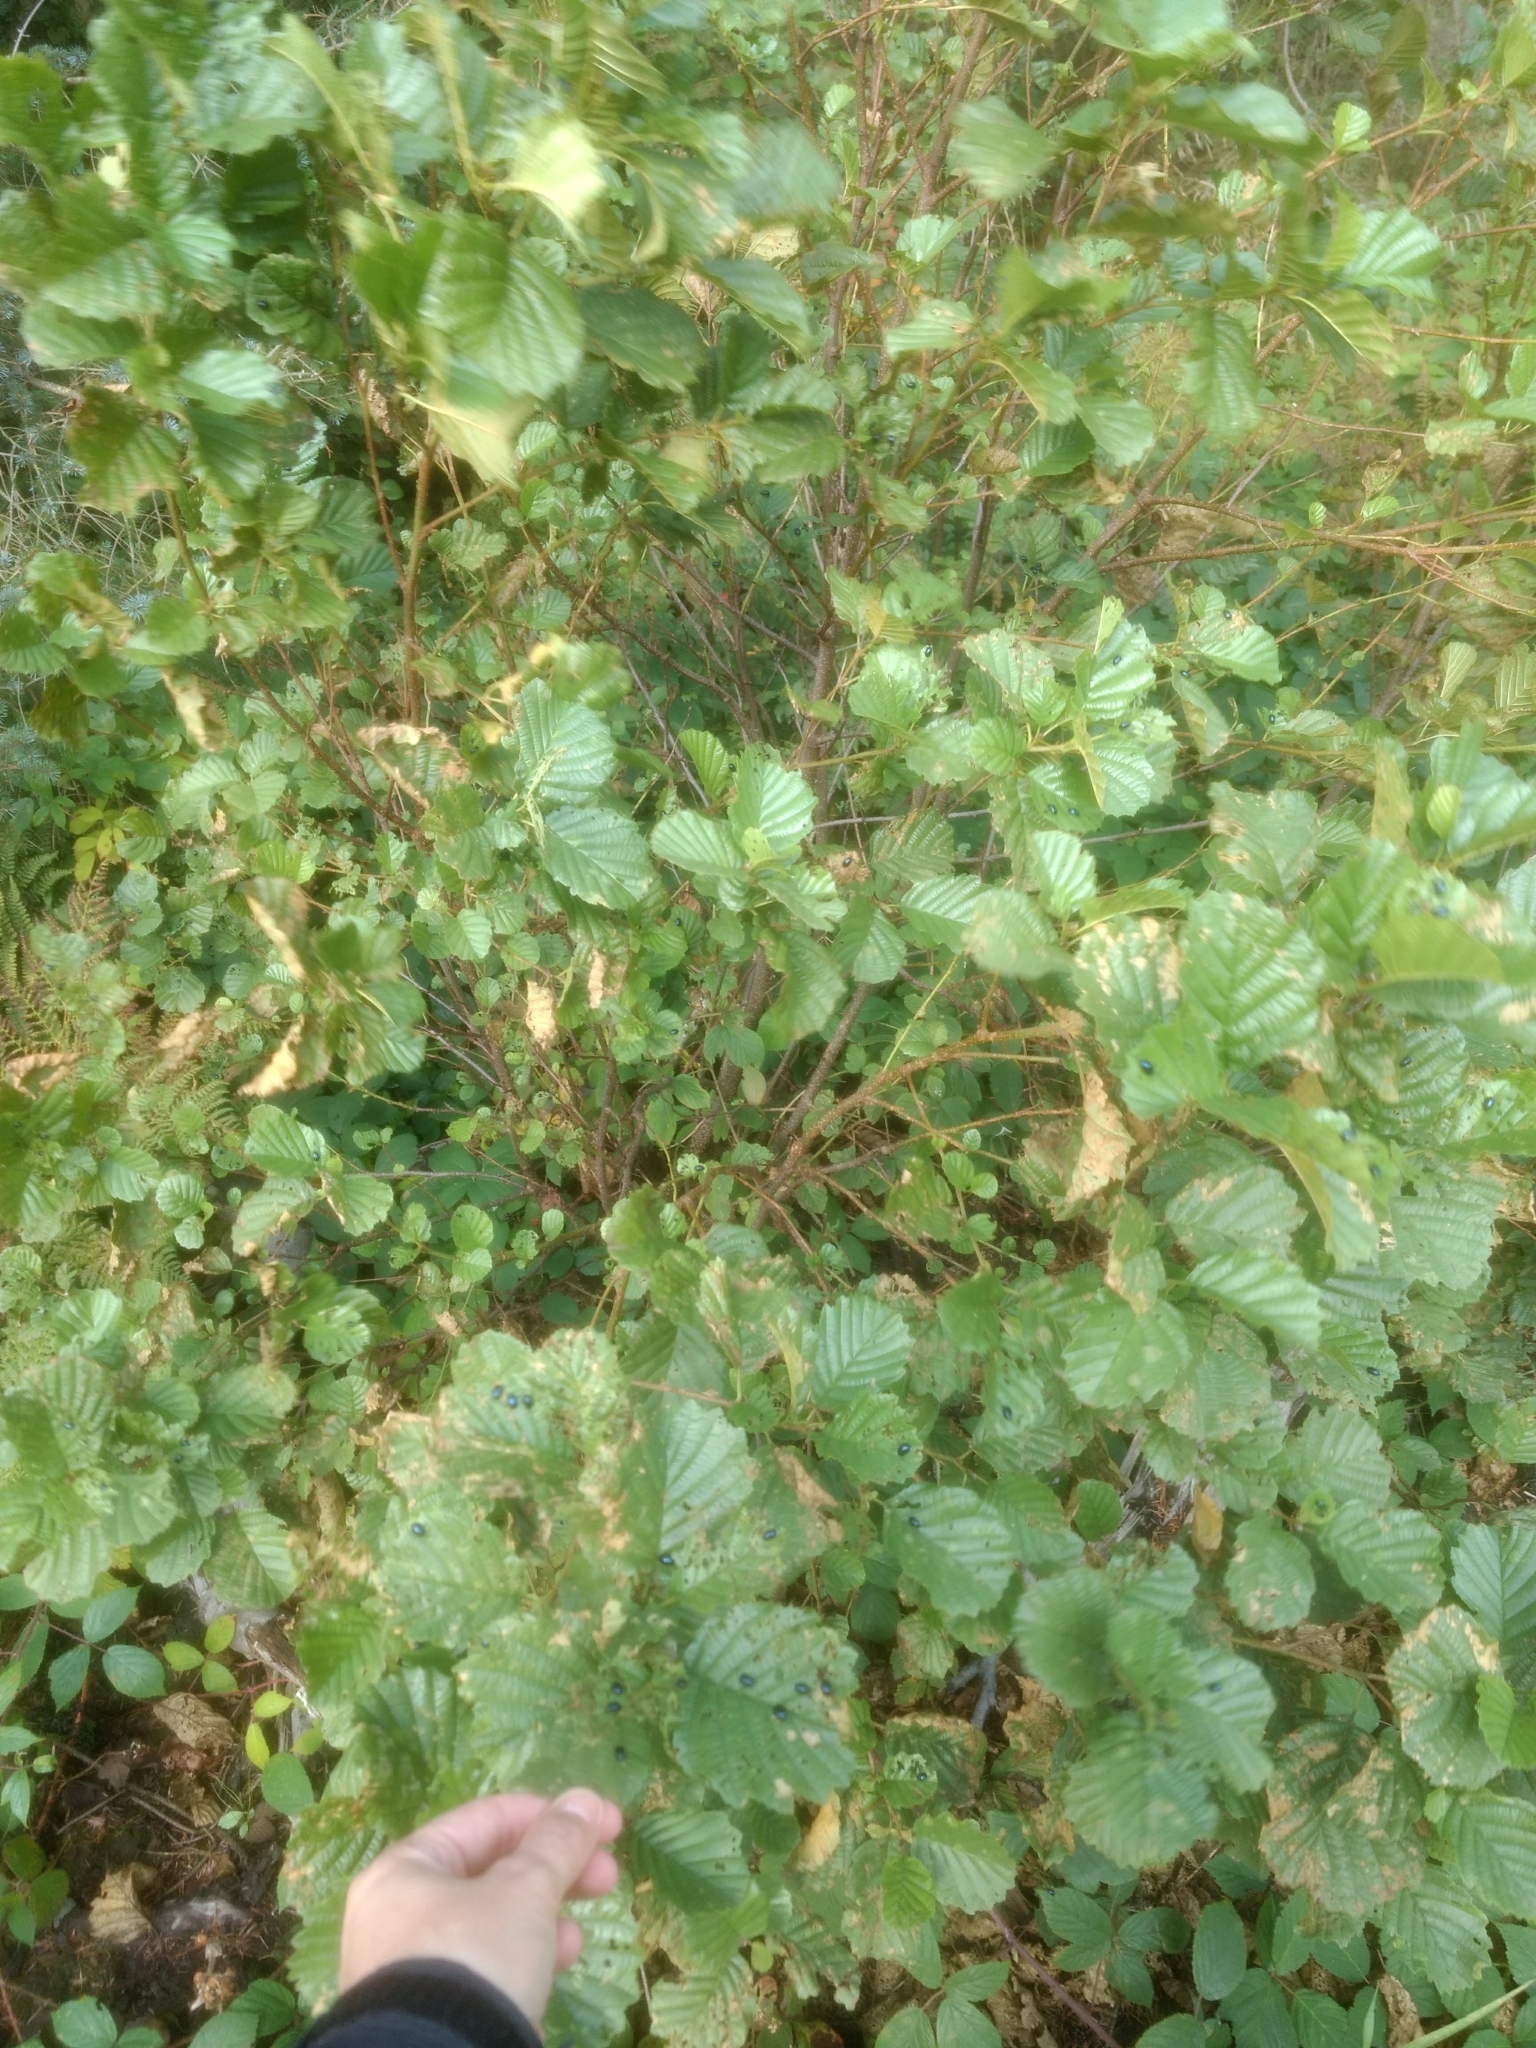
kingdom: Animalia
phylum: Arthropoda
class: Insecta
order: Coleoptera
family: Chrysomelidae
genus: Agelastica
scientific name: Agelastica alni
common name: Alder leaf beetle
